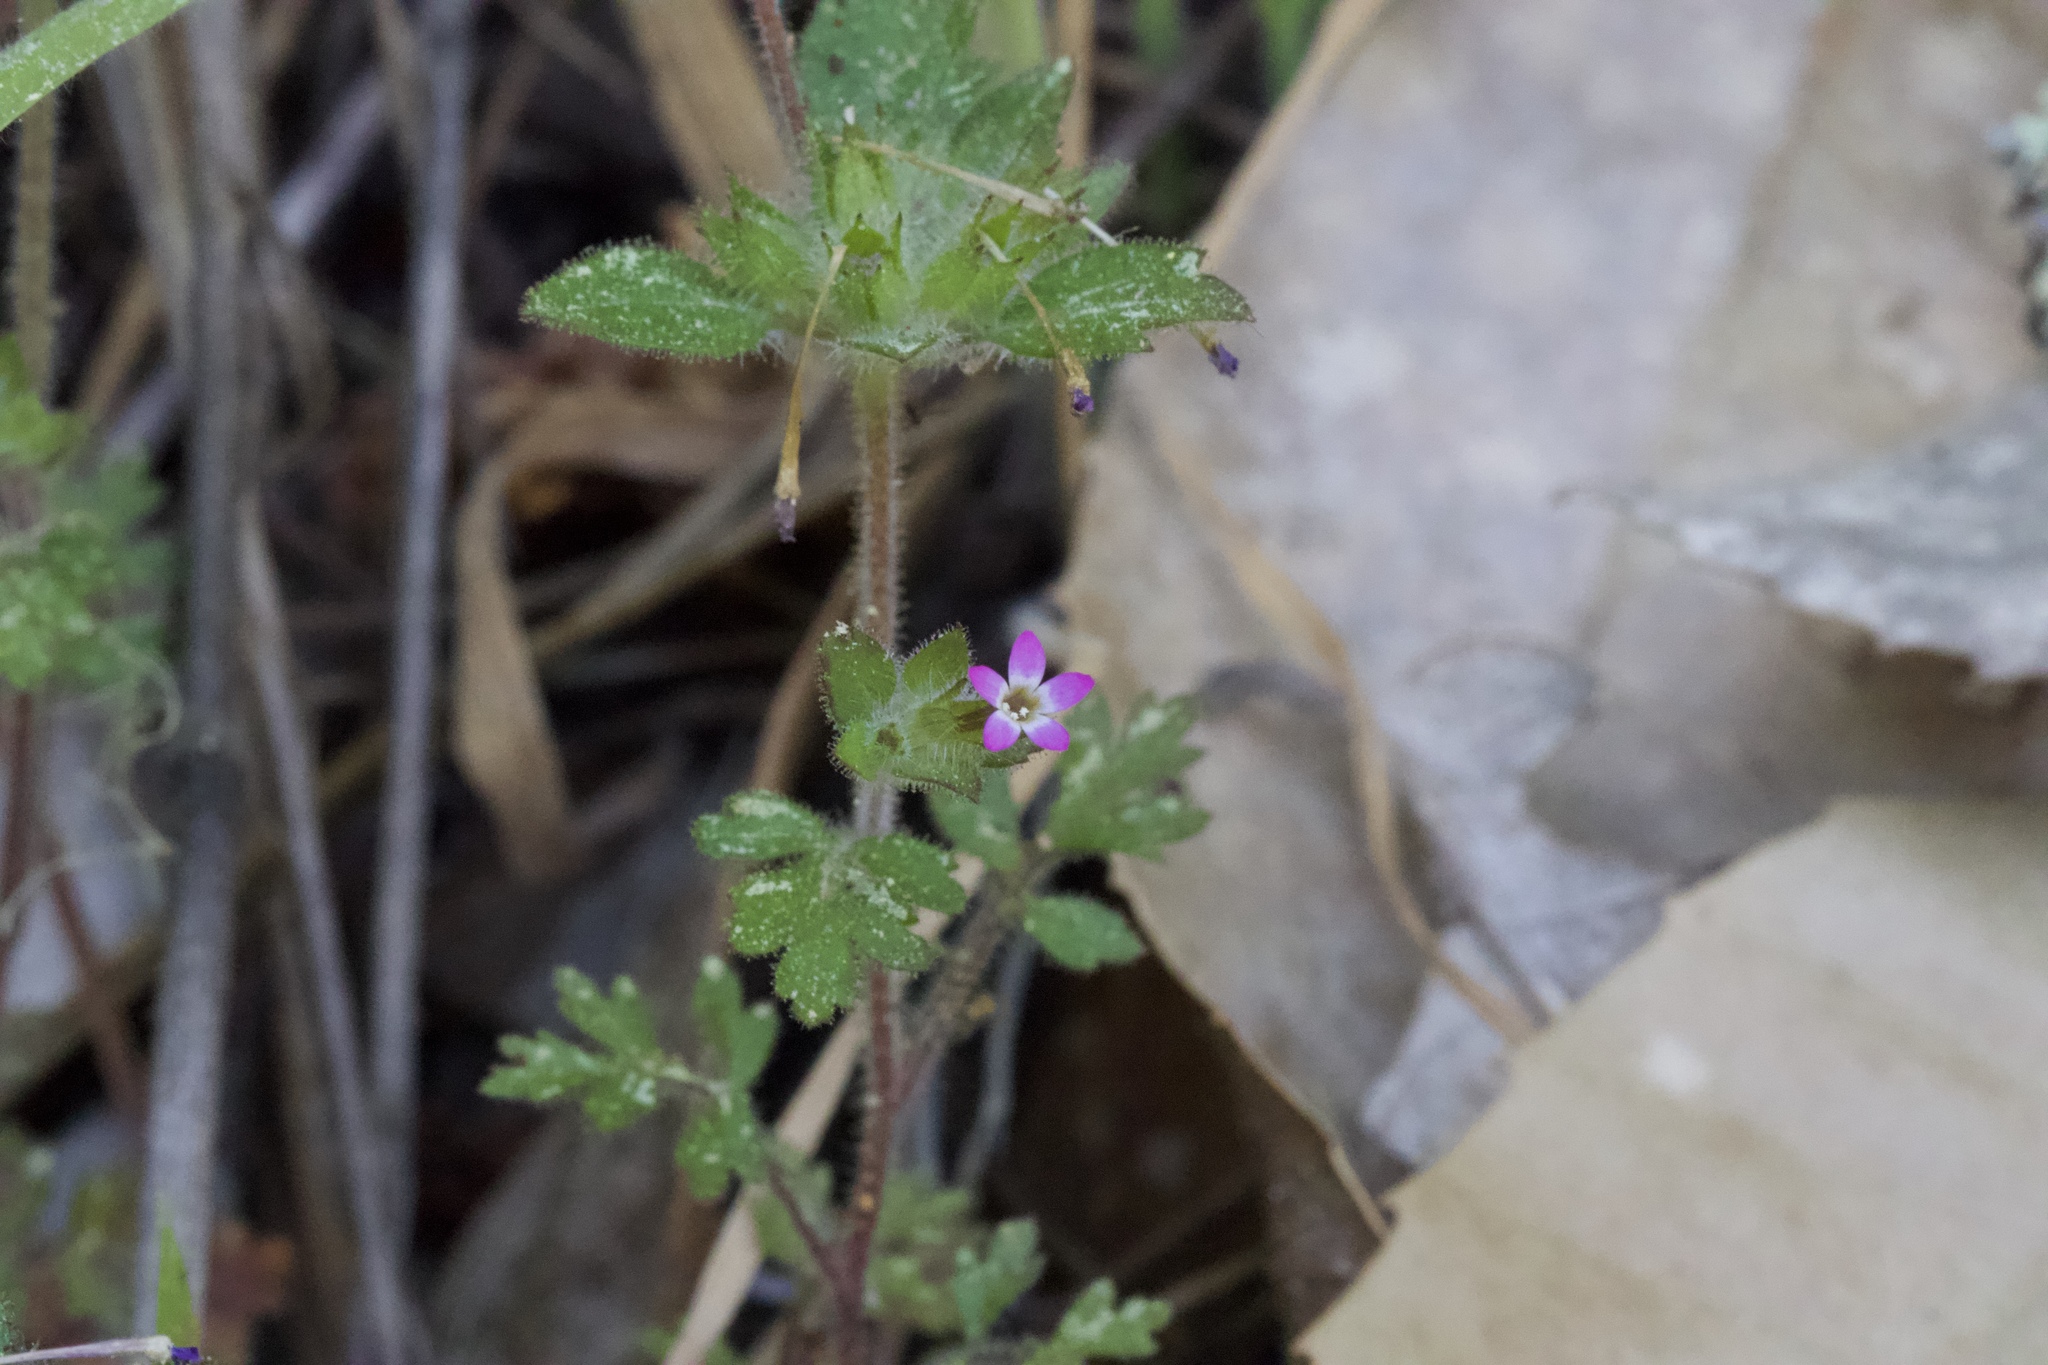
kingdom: Plantae
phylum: Tracheophyta
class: Magnoliopsida
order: Ericales
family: Polemoniaceae
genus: Collomia
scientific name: Collomia heterophylla
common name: Variable-leaved collomia
